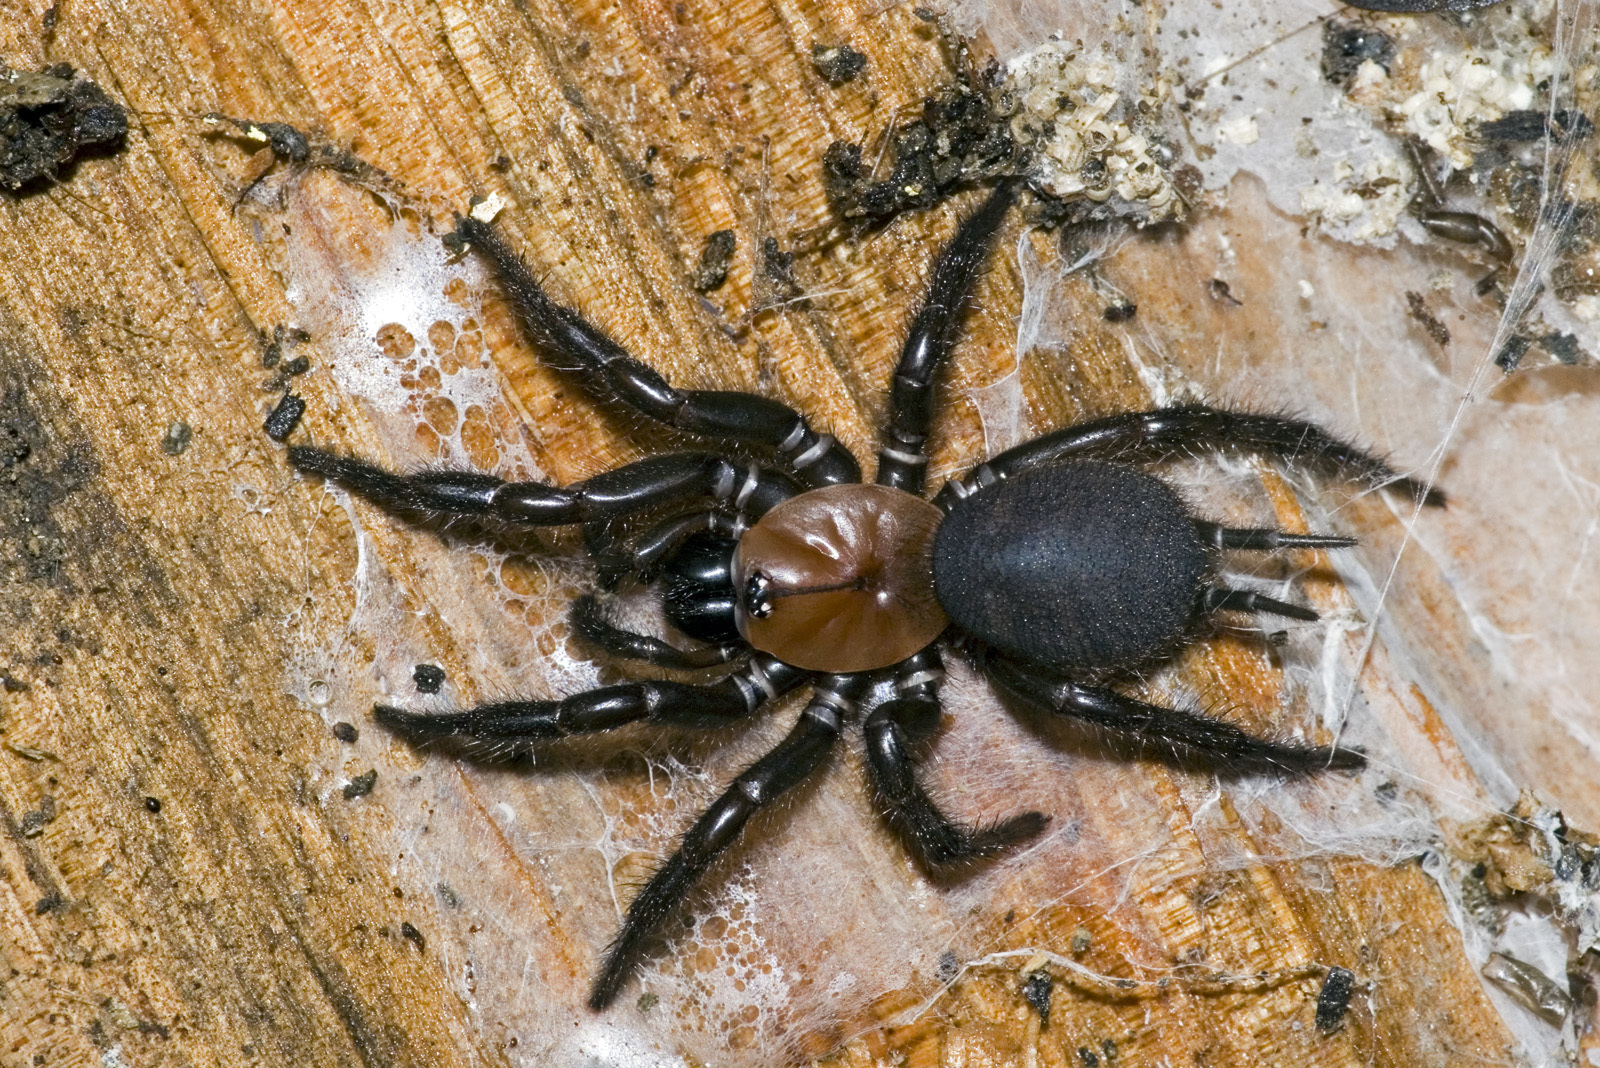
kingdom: Animalia
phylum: Arthropoda
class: Arachnida
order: Araneae
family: Porrhothelidae
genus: Porrhothele
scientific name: Porrhothele antipodiana
